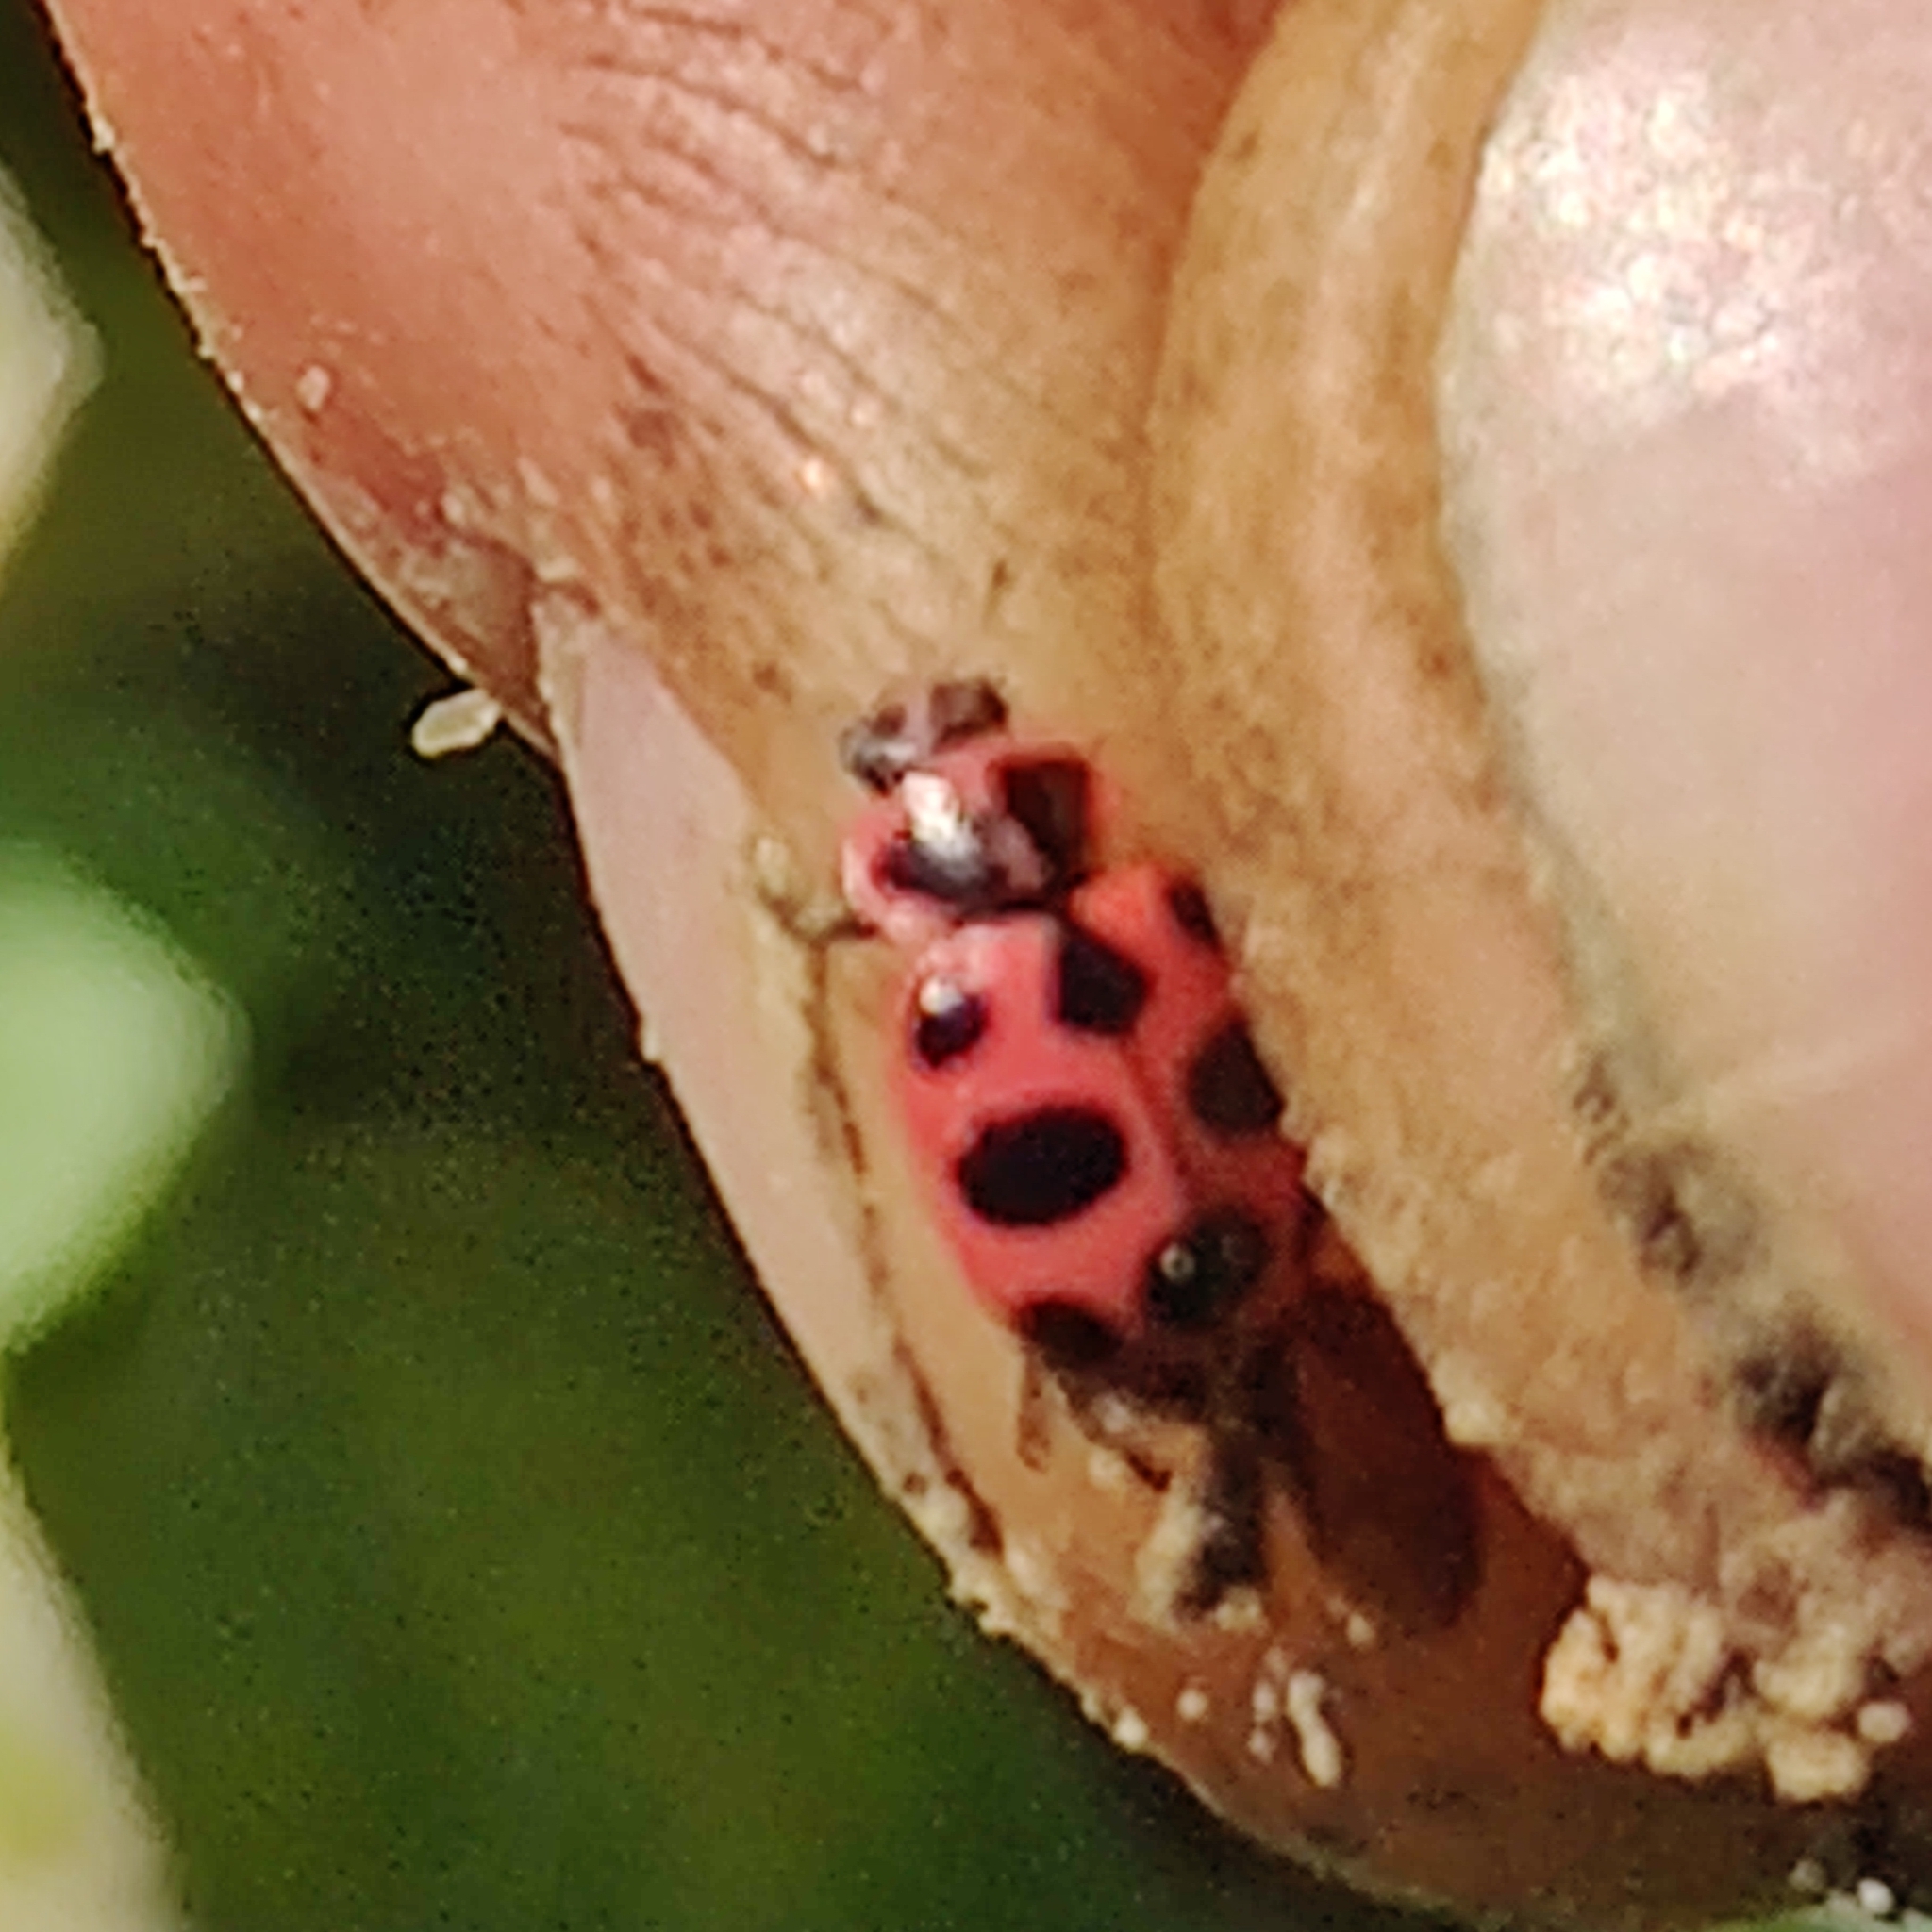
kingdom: Animalia
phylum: Arthropoda
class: Insecta
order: Coleoptera
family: Coccinellidae
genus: Coleomegilla
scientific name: Coleomegilla maculata
